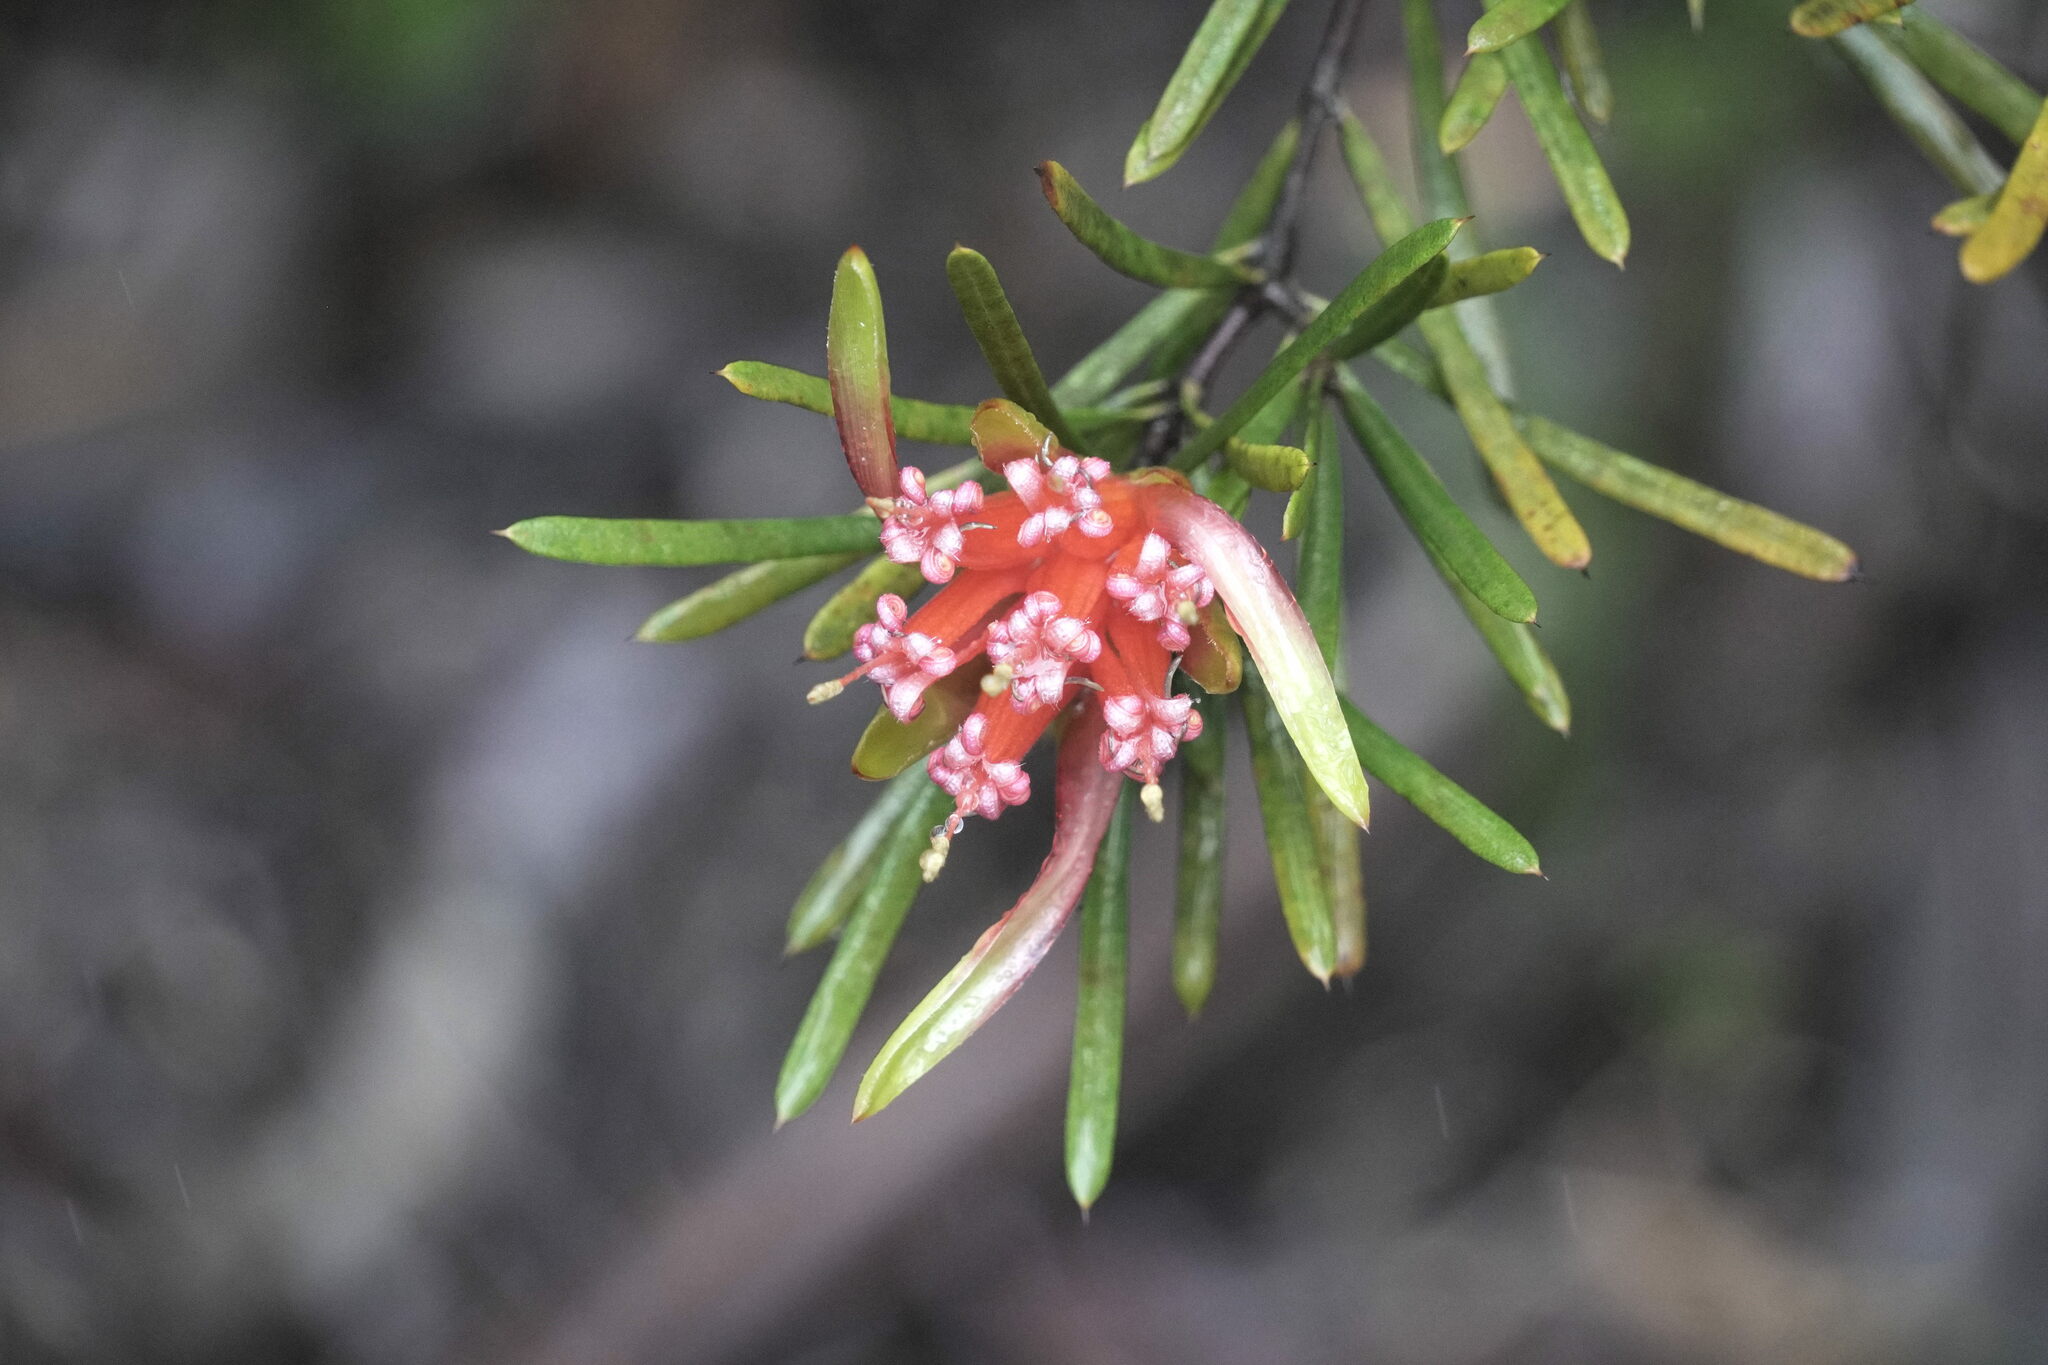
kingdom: Plantae
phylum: Tracheophyta
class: Magnoliopsida
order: Proteales
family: Proteaceae
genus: Lambertia
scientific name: Lambertia formosa
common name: Mountain-devil
